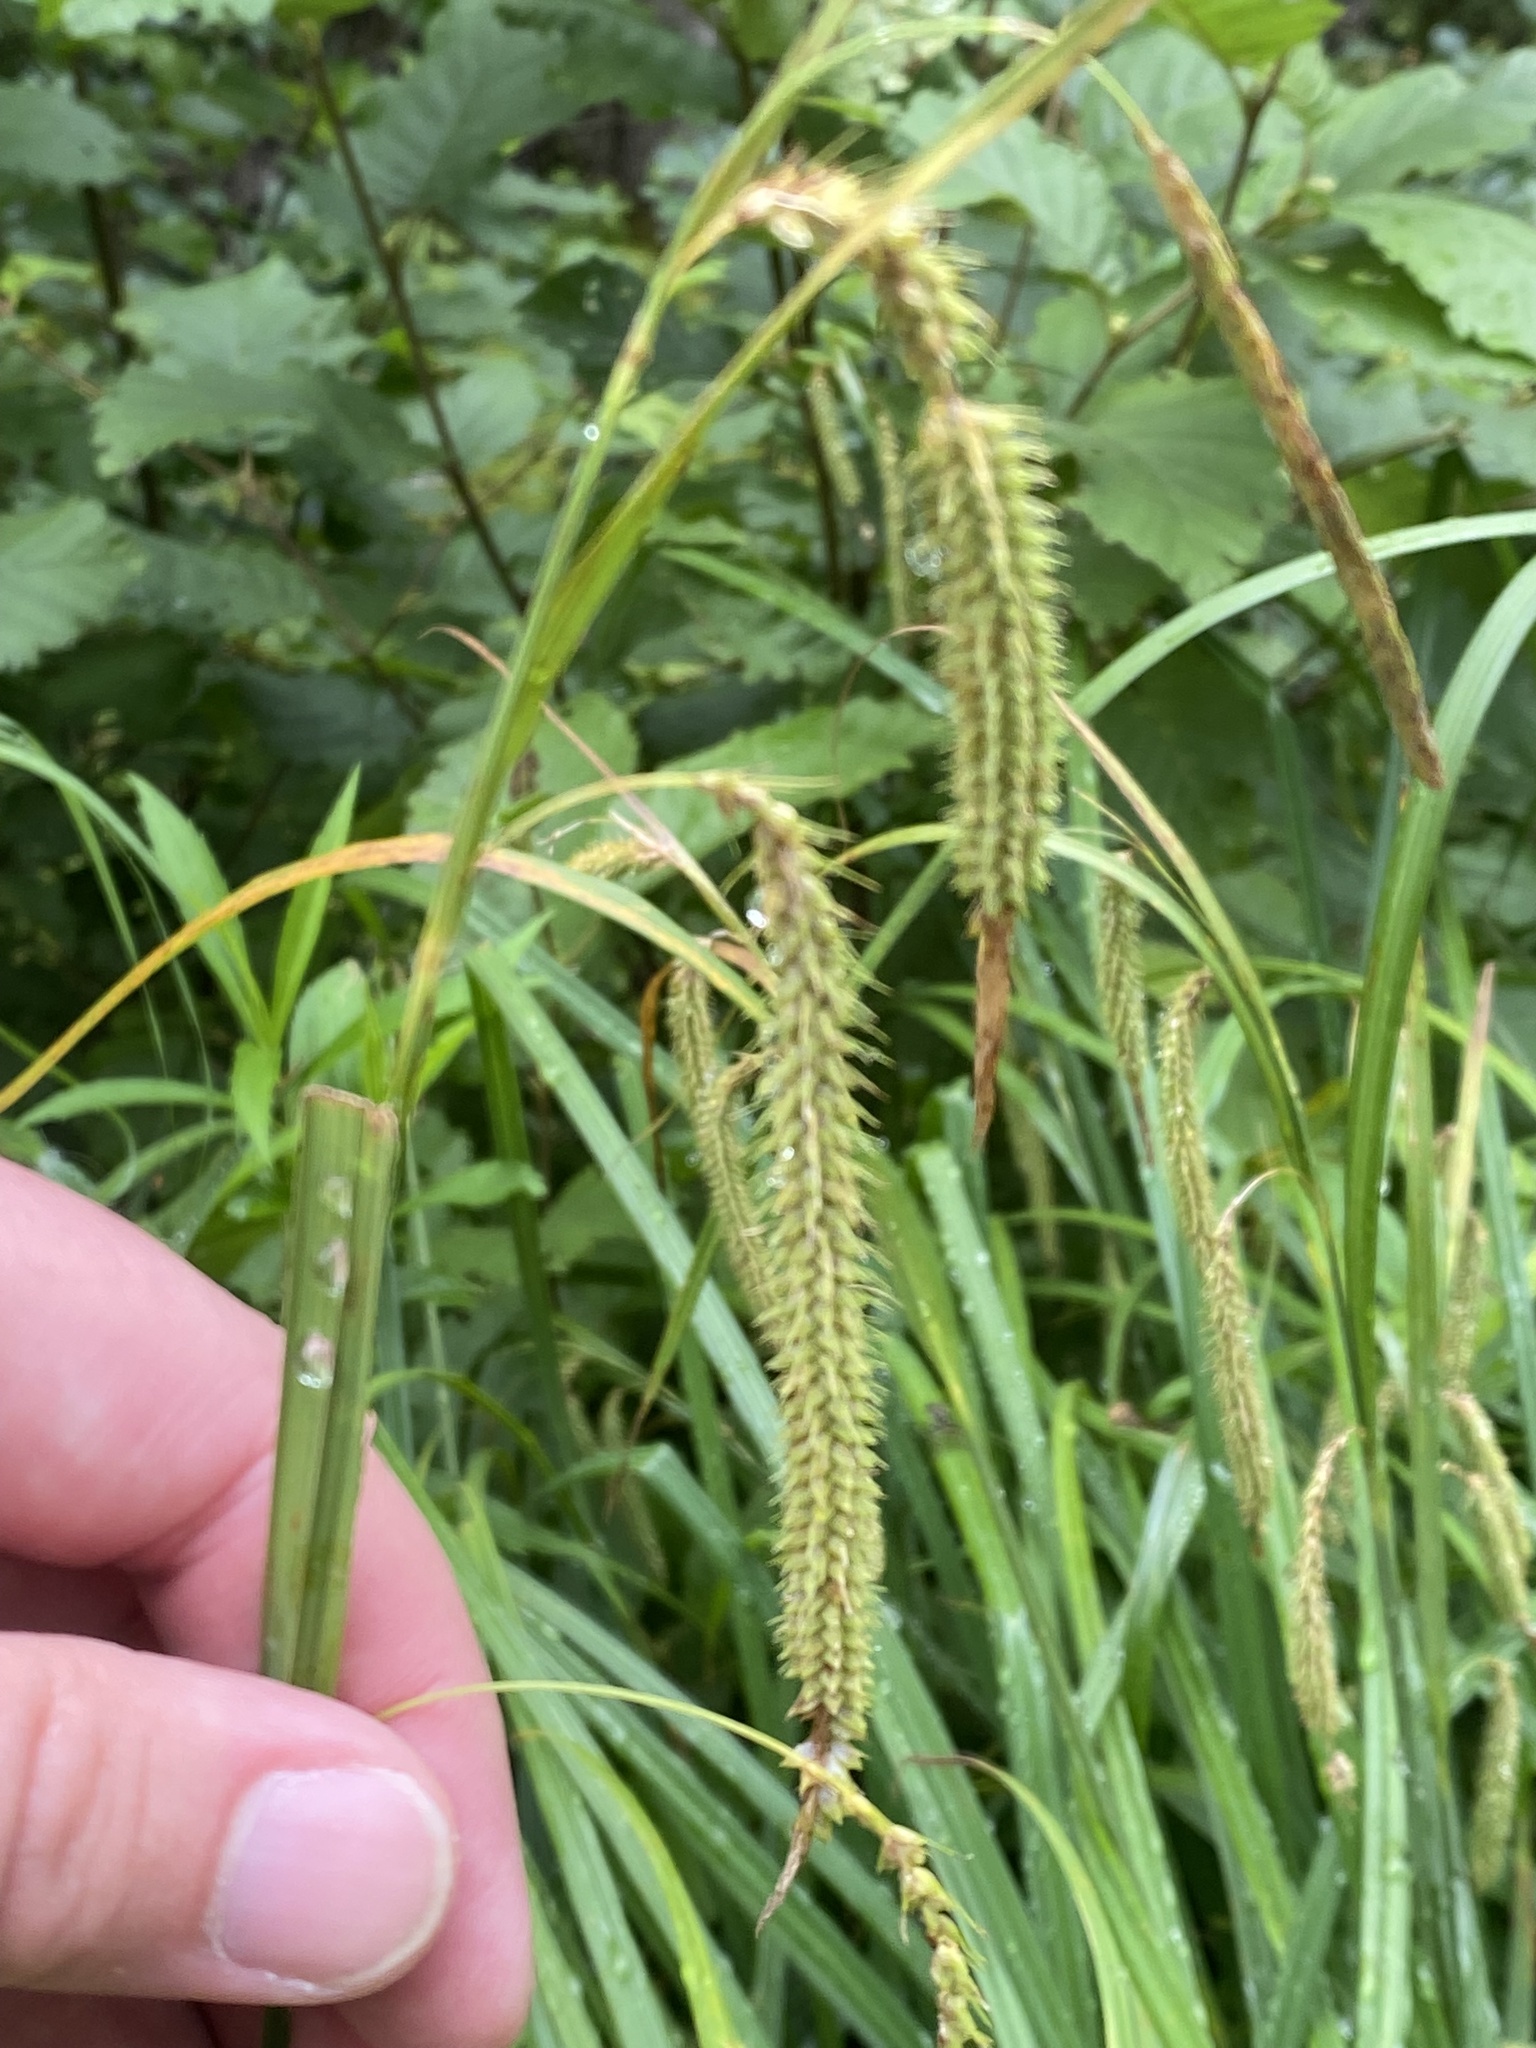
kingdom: Plantae
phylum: Tracheophyta
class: Liliopsida
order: Poales
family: Cyperaceae
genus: Carex
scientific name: Carex gynandra
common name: Nodding sedge
